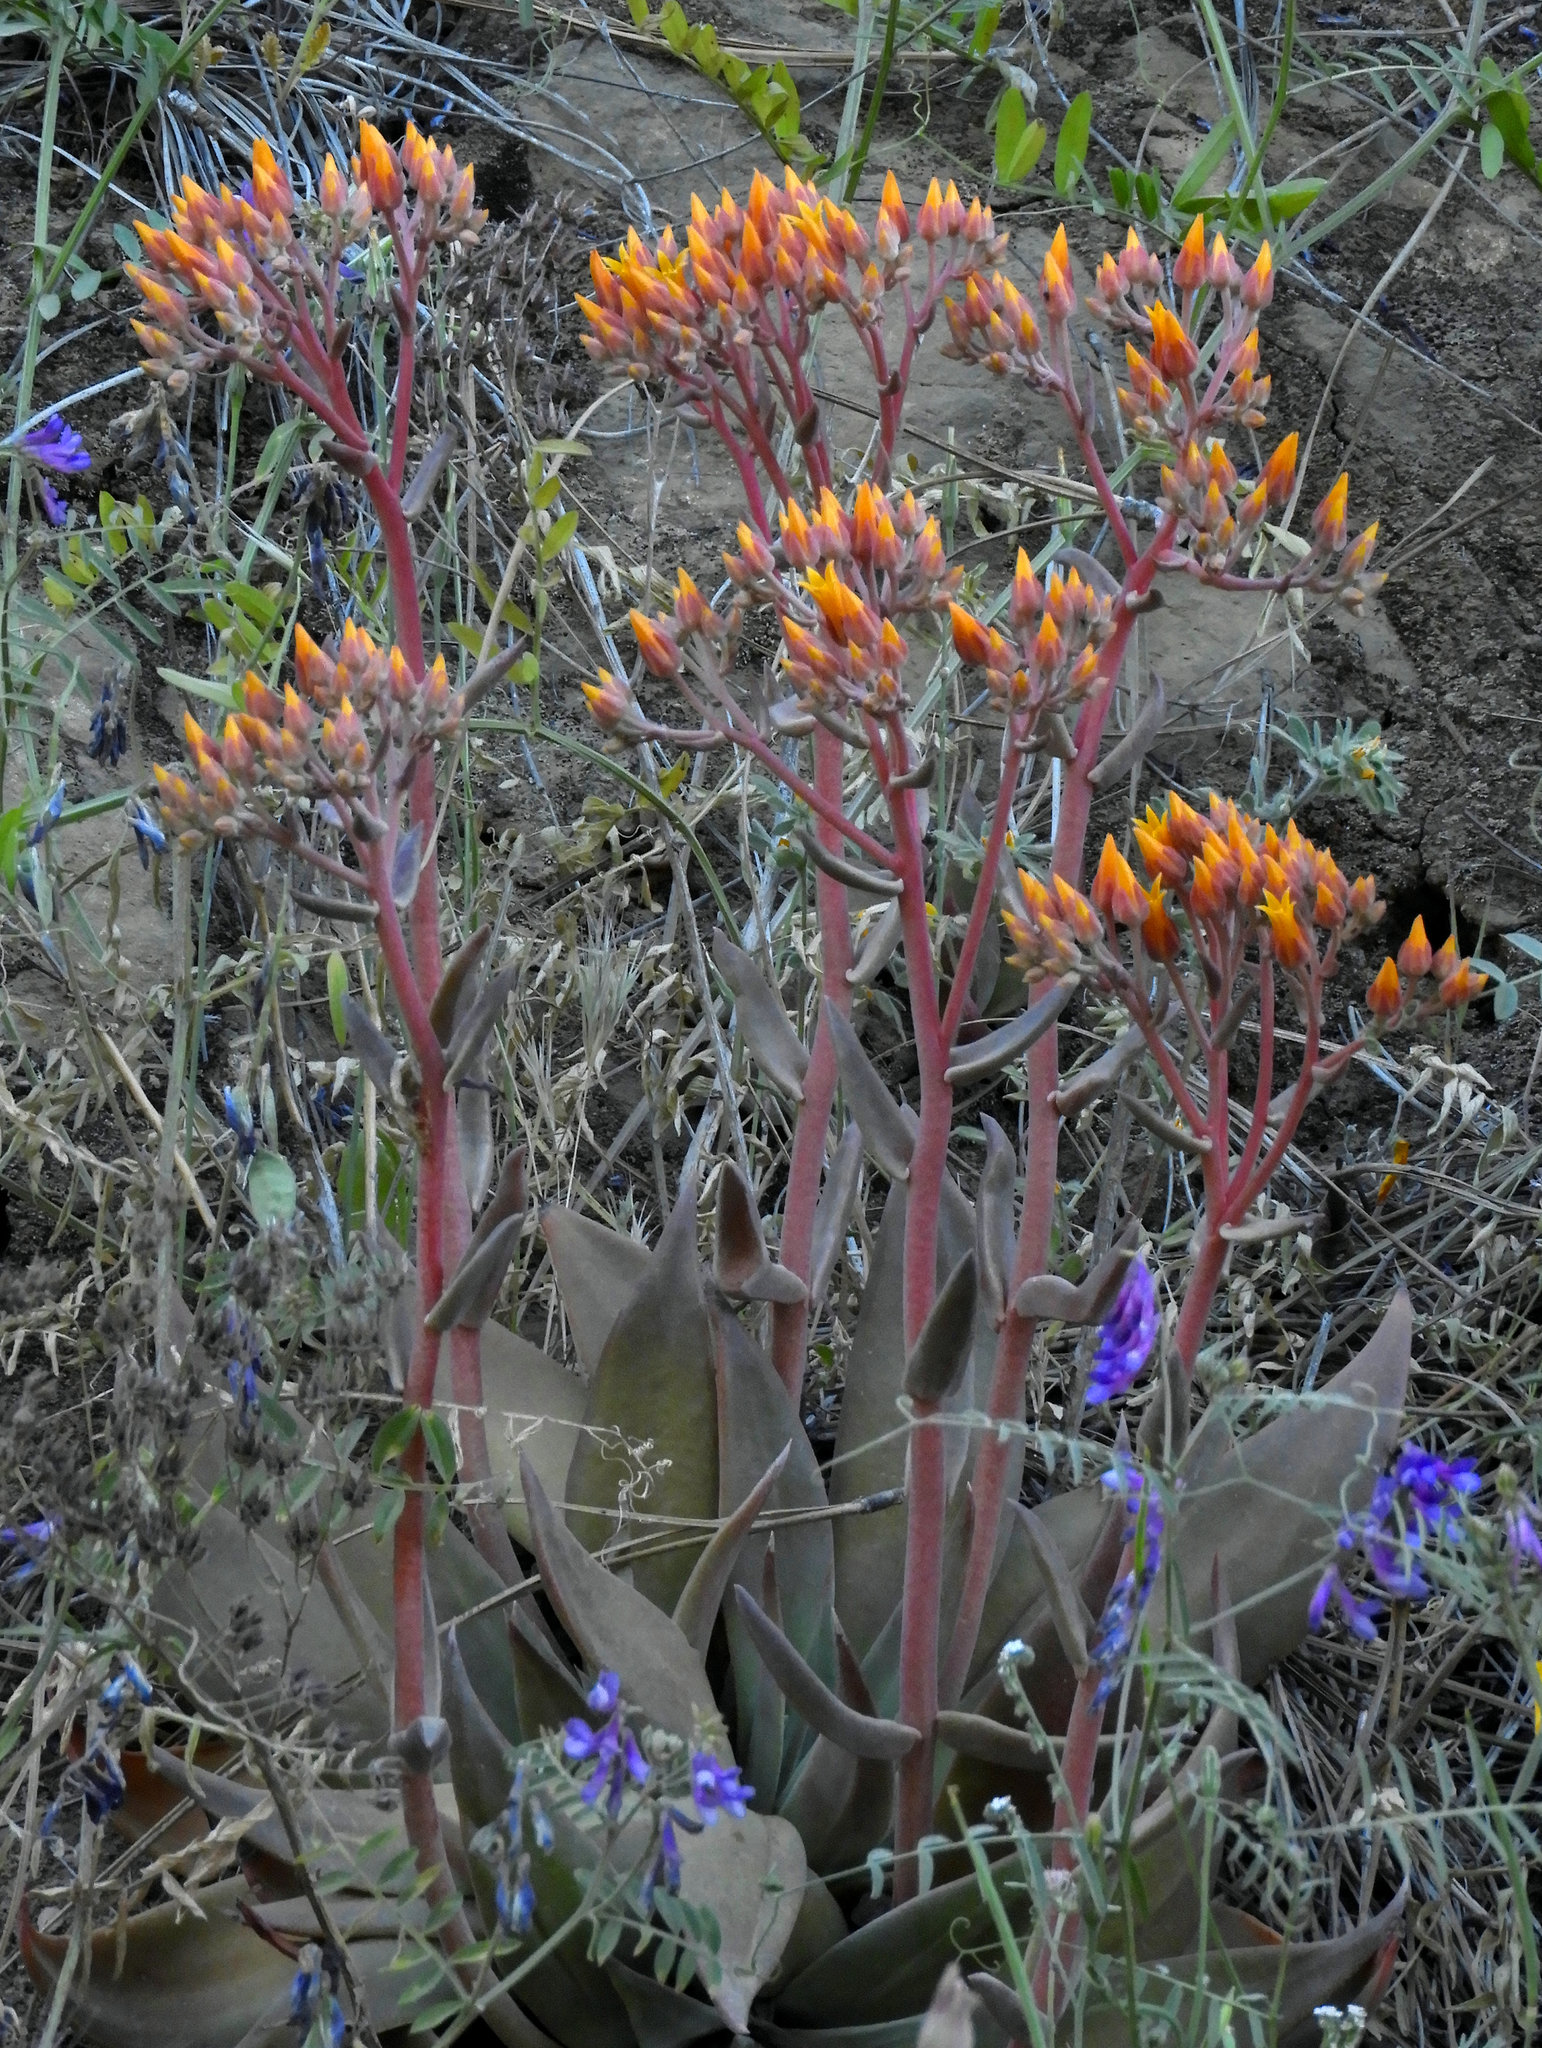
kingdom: Plantae
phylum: Tracheophyta
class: Magnoliopsida
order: Saxifragales
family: Crassulaceae
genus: Dudleya
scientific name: Dudleya cymosa
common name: Canyon dudleya
